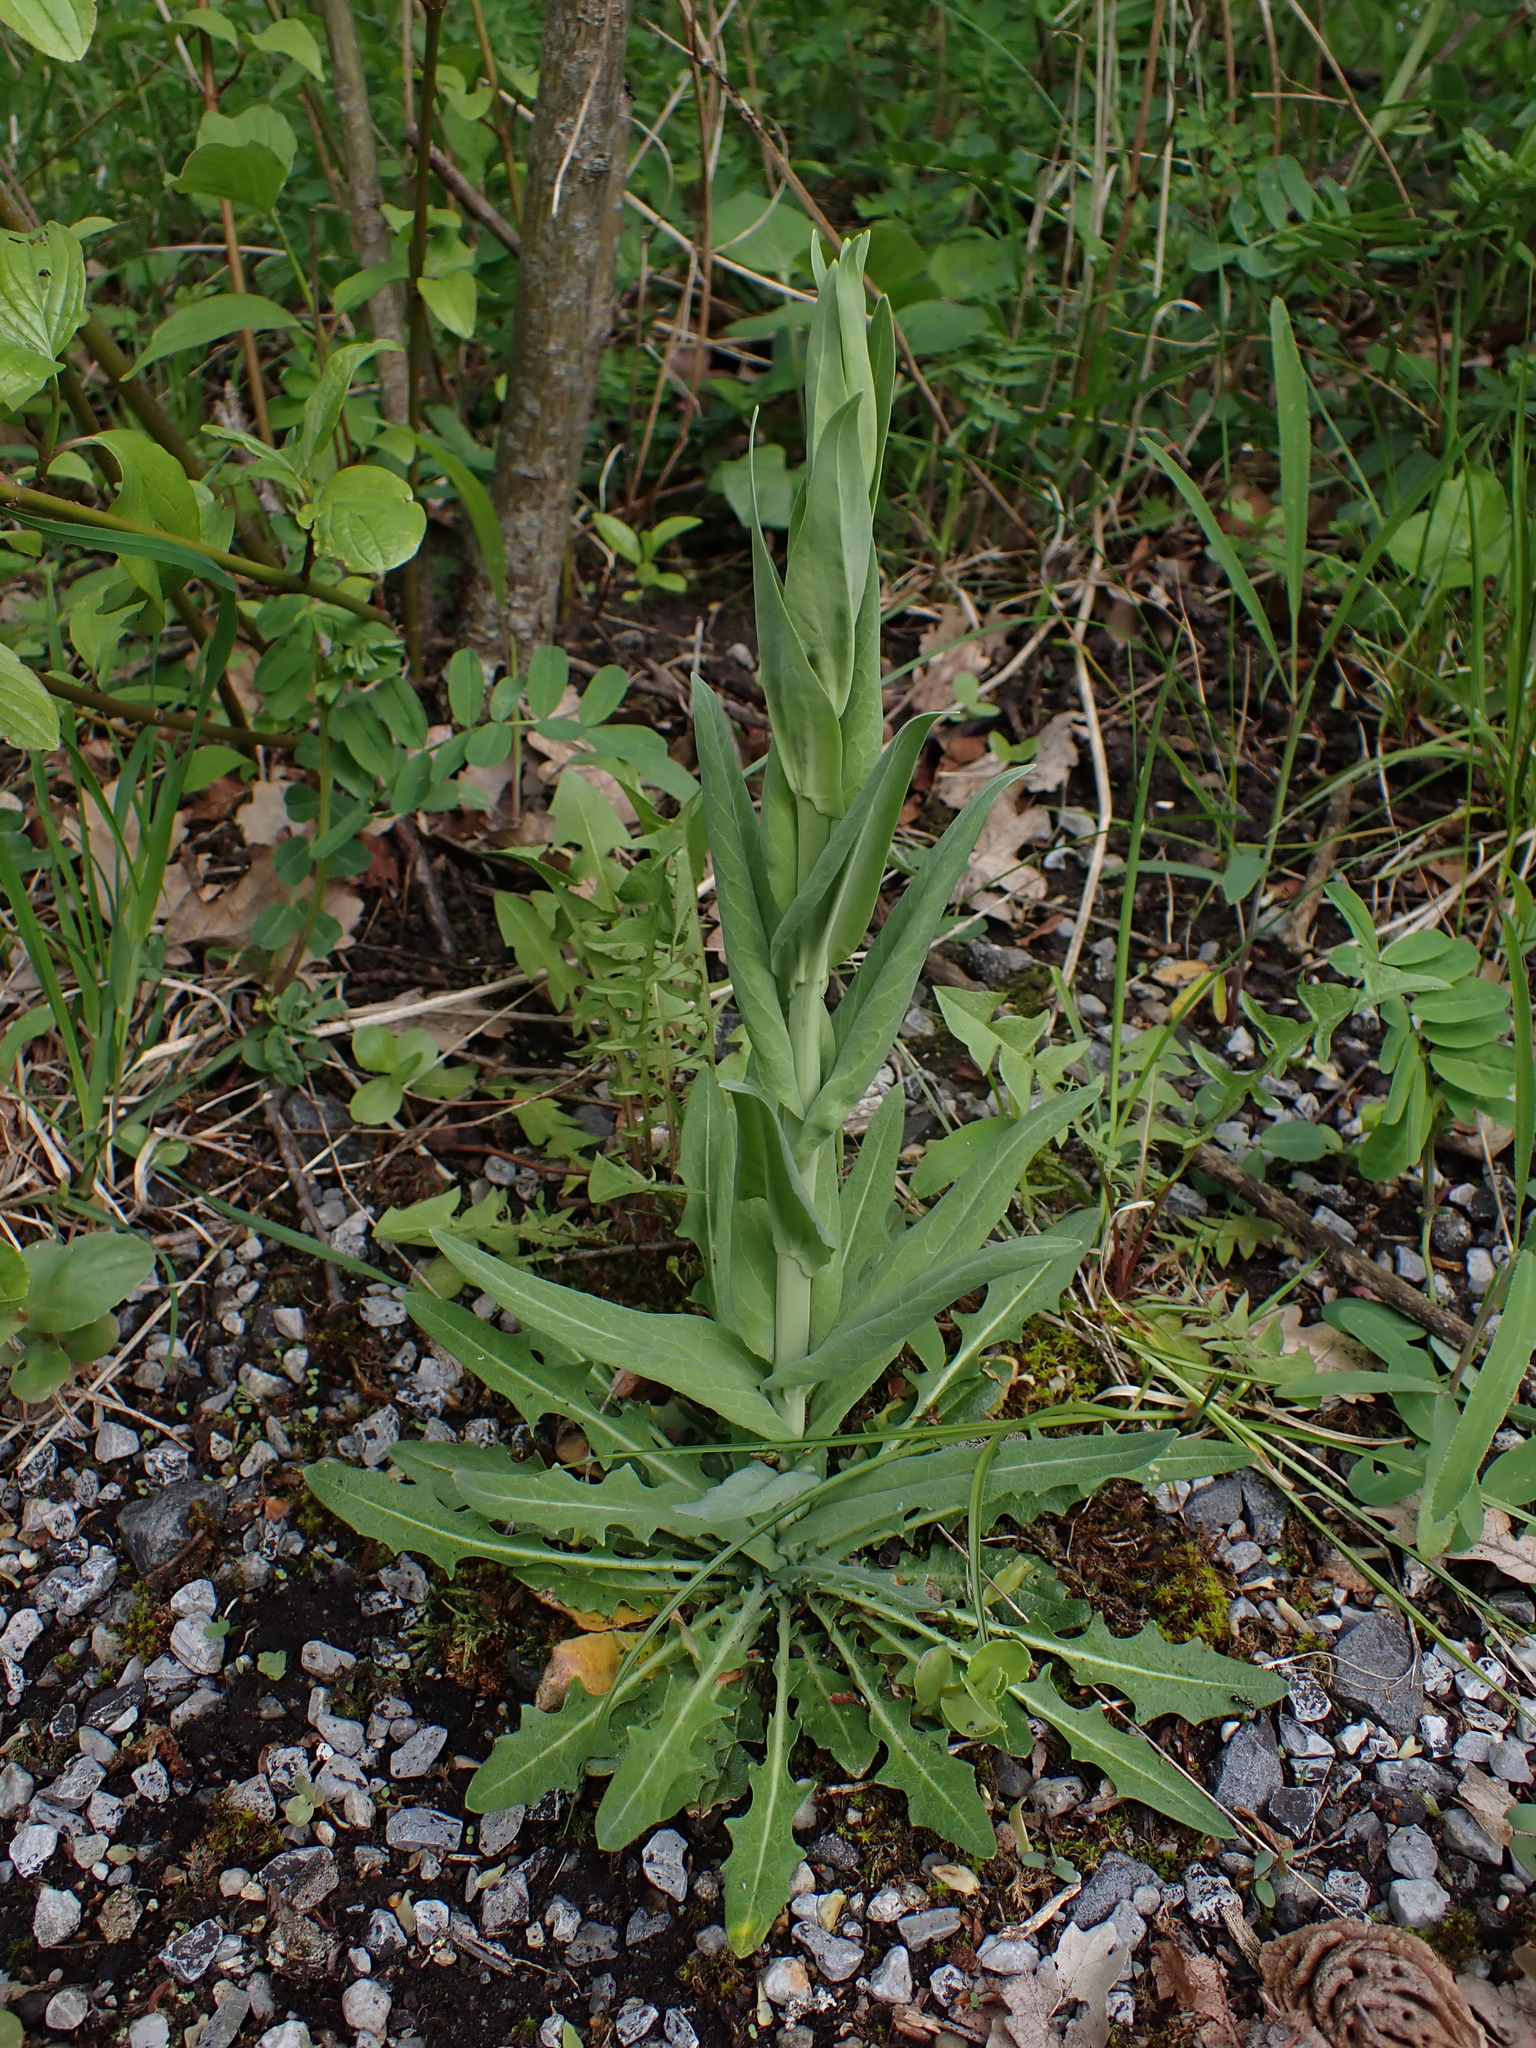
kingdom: Plantae
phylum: Tracheophyta
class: Magnoliopsida
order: Brassicales
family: Brassicaceae
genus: Turritis
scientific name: Turritis glabra
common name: Tower rockcress
